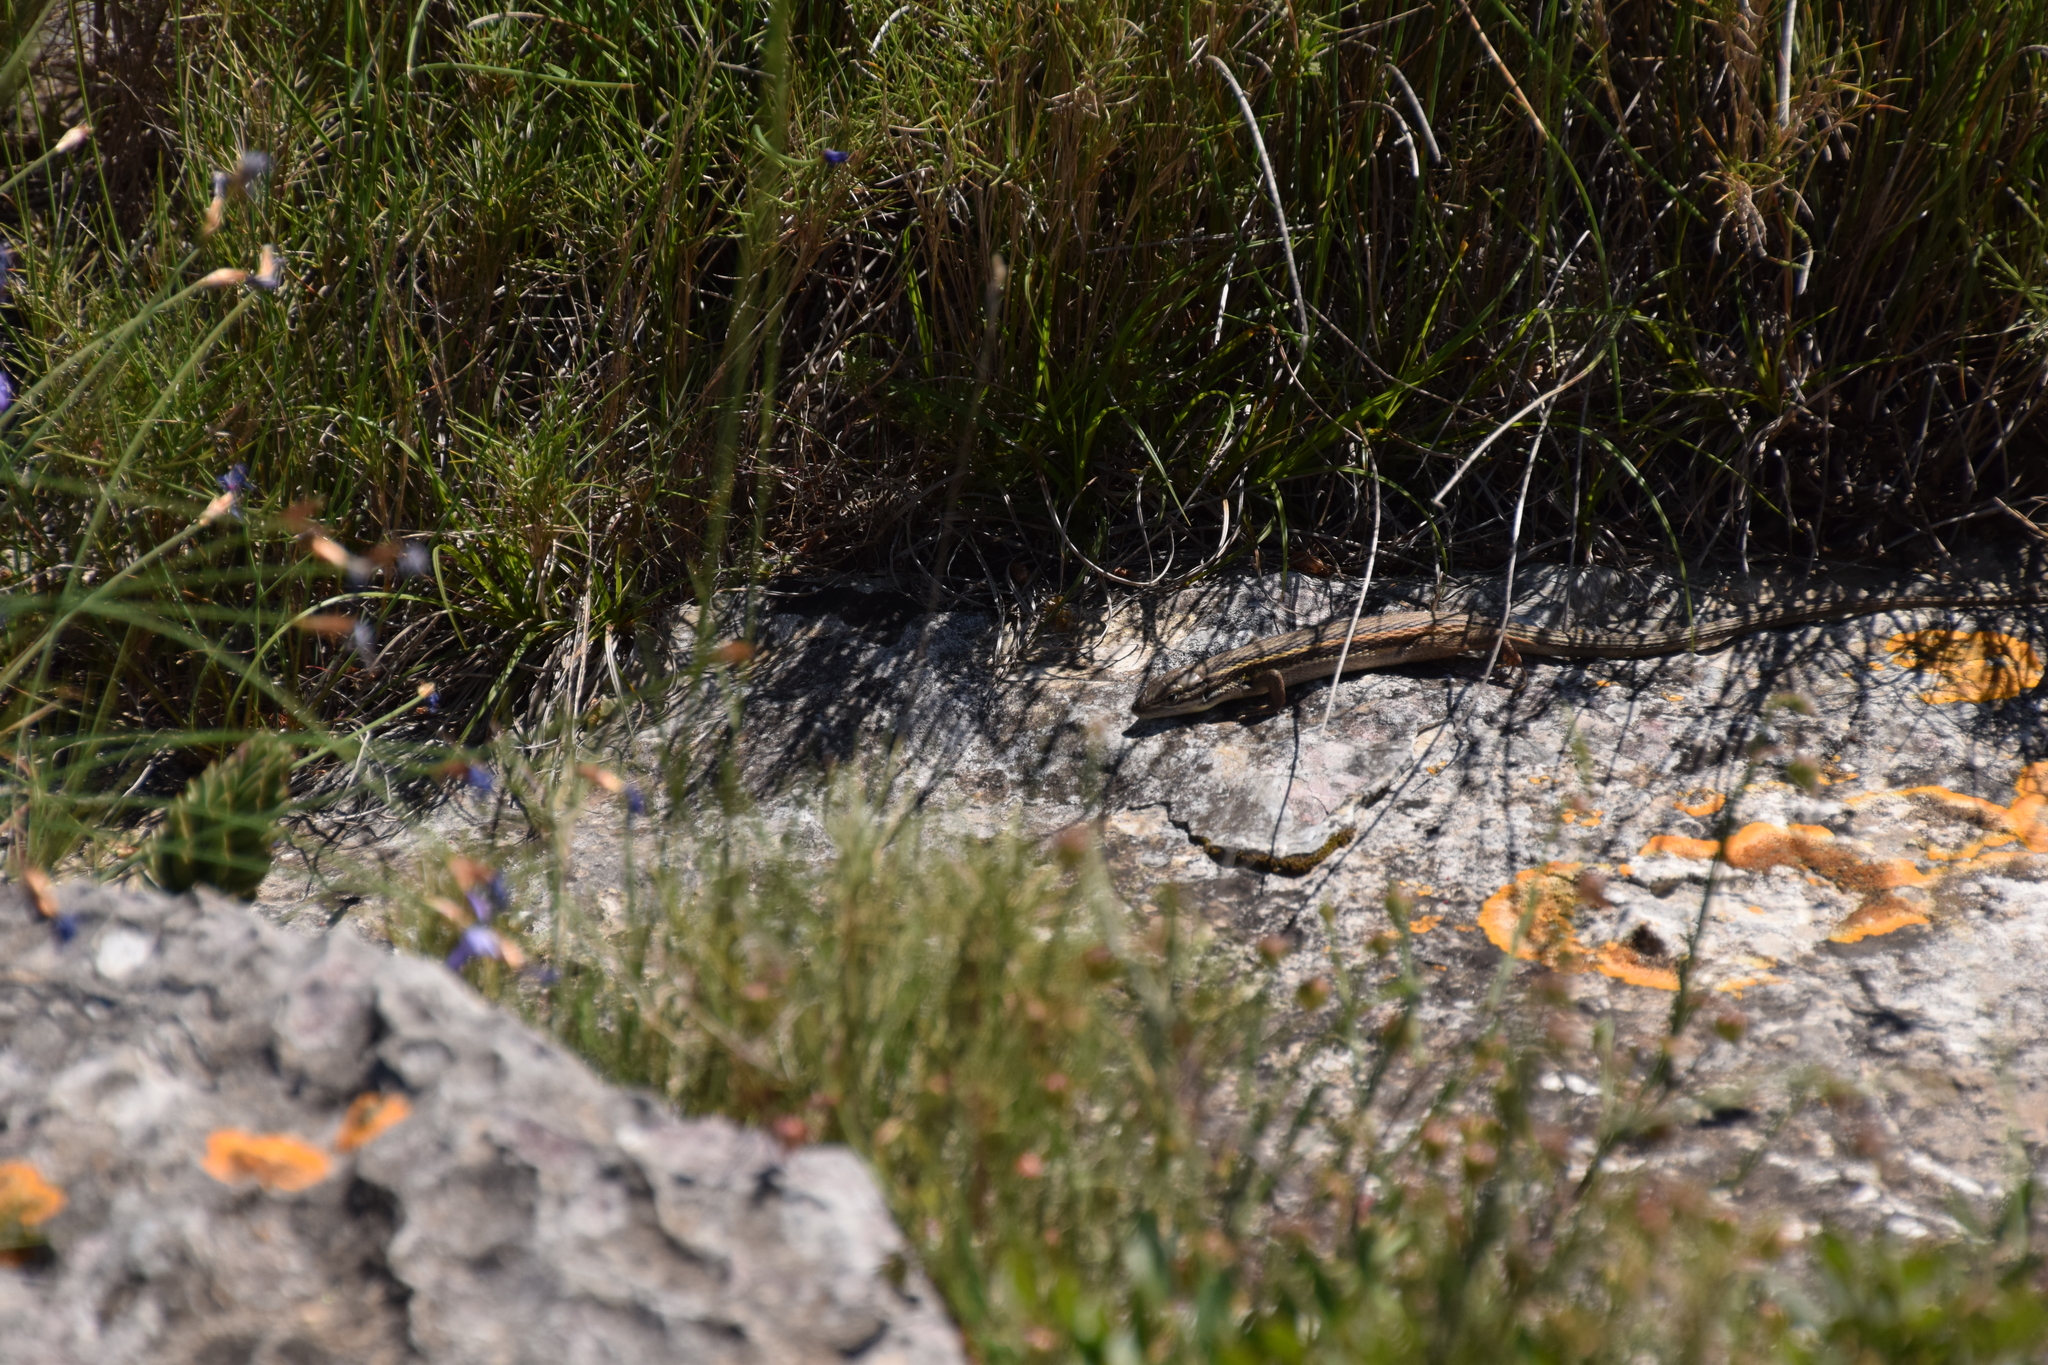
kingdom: Animalia
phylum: Chordata
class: Squamata
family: Lacertidae
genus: Psammodromus
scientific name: Psammodromus algirus
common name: Algerian psammodromus
